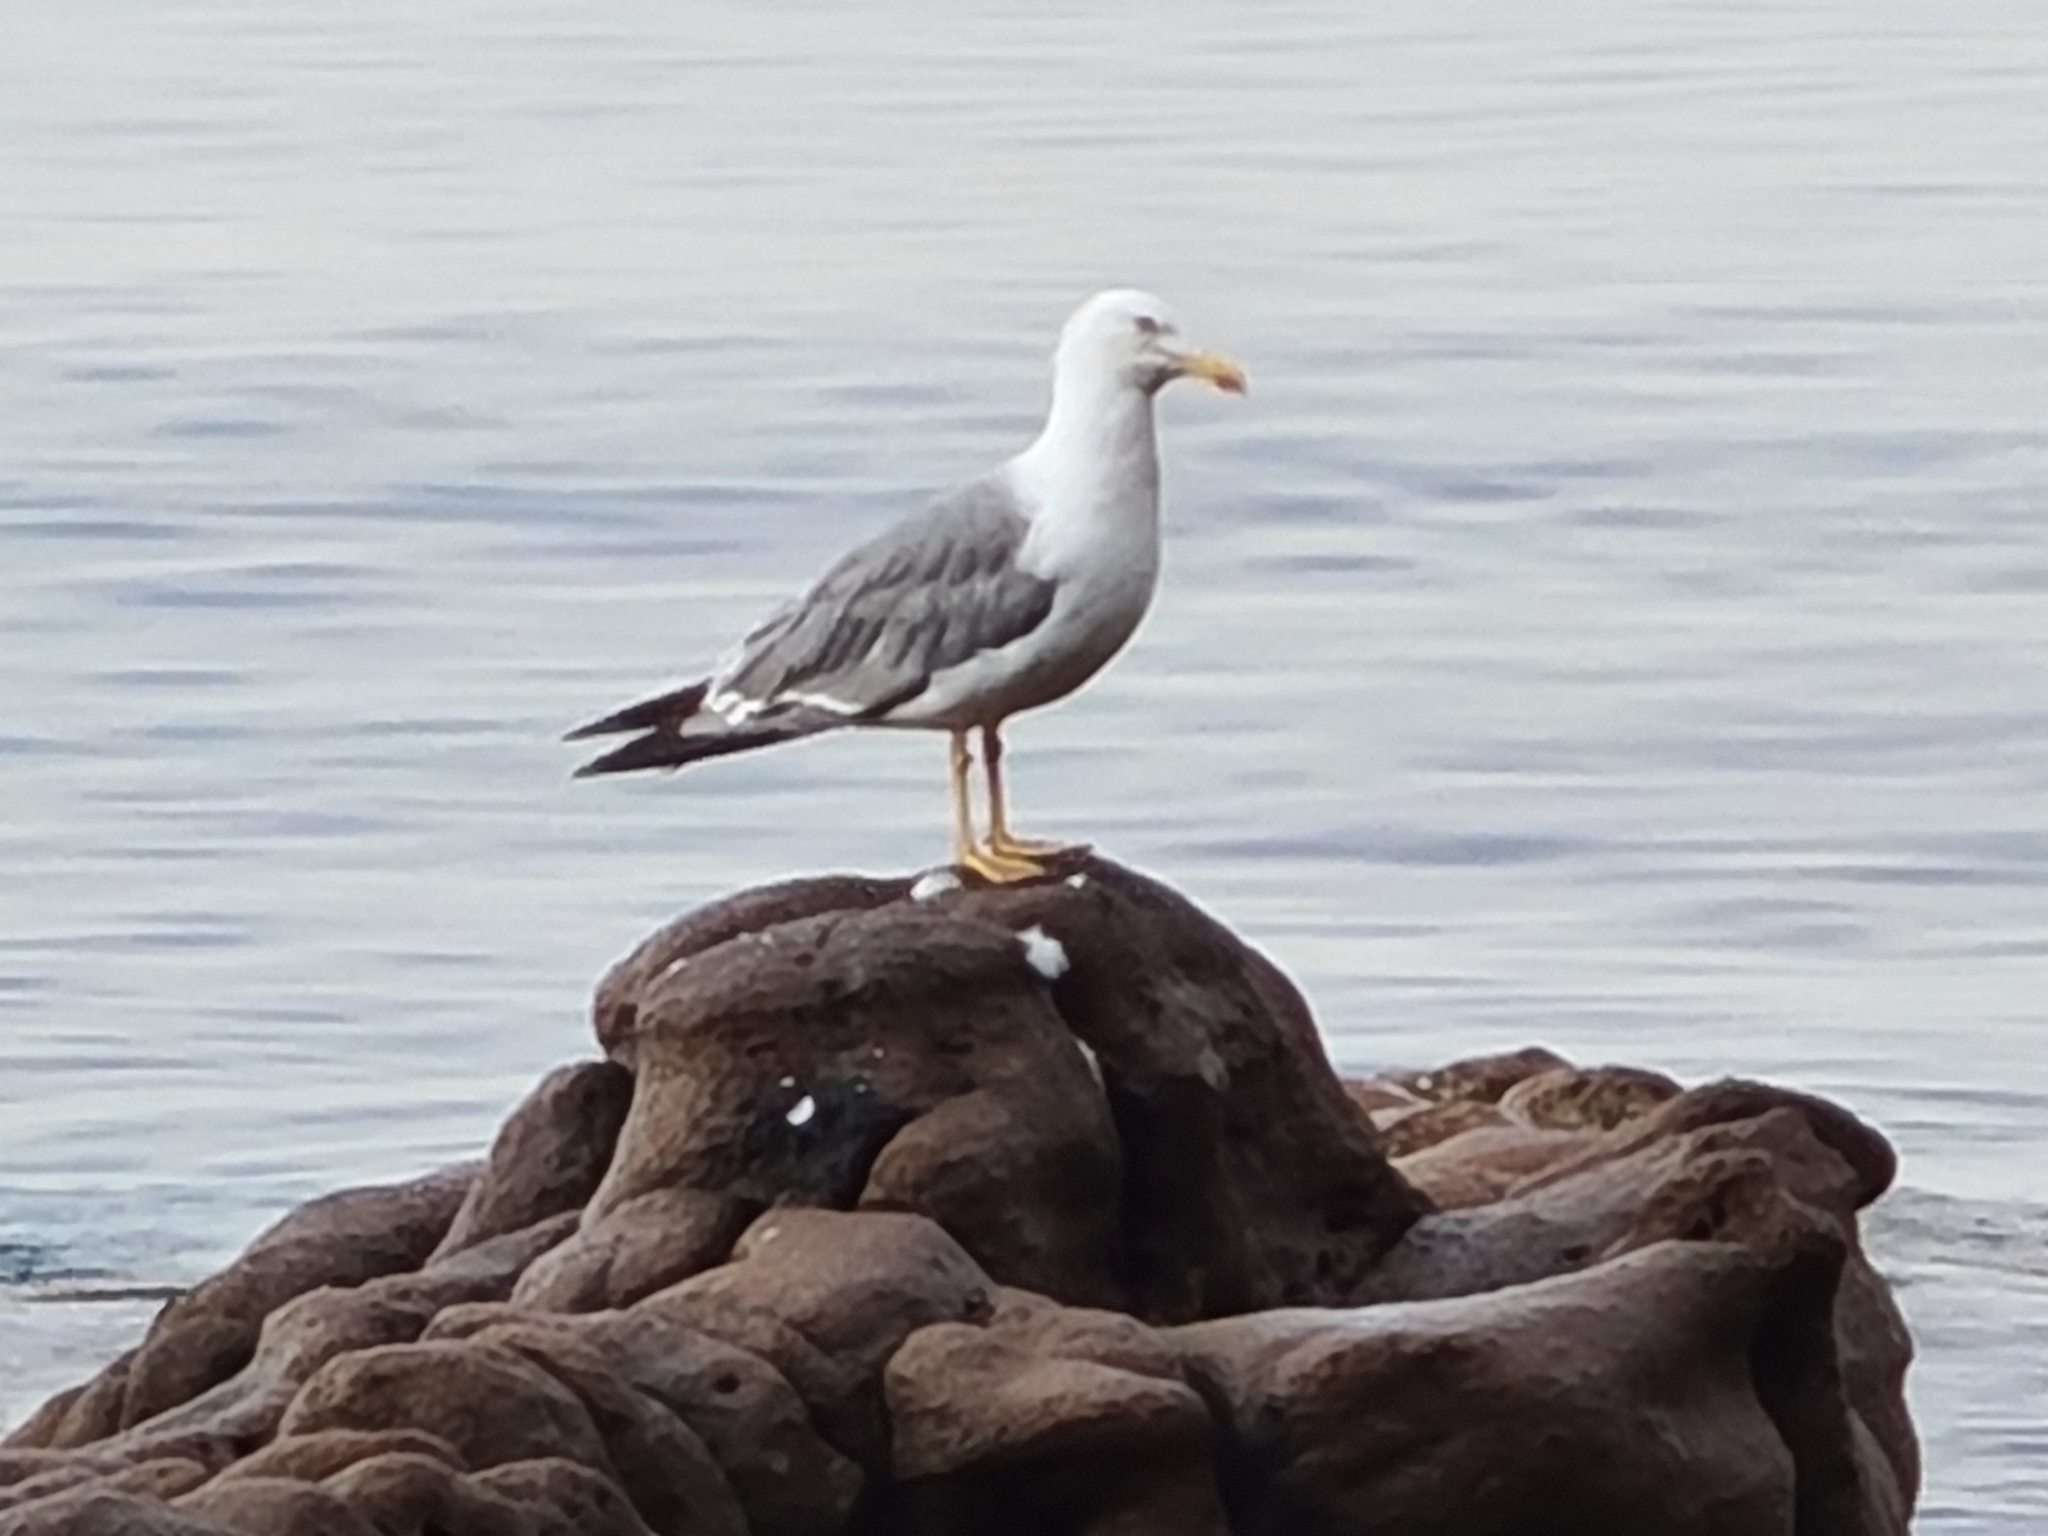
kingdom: Animalia
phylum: Chordata
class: Aves
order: Charadriiformes
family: Laridae
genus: Larus
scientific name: Larus michahellis
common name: Yellow-legged gull
